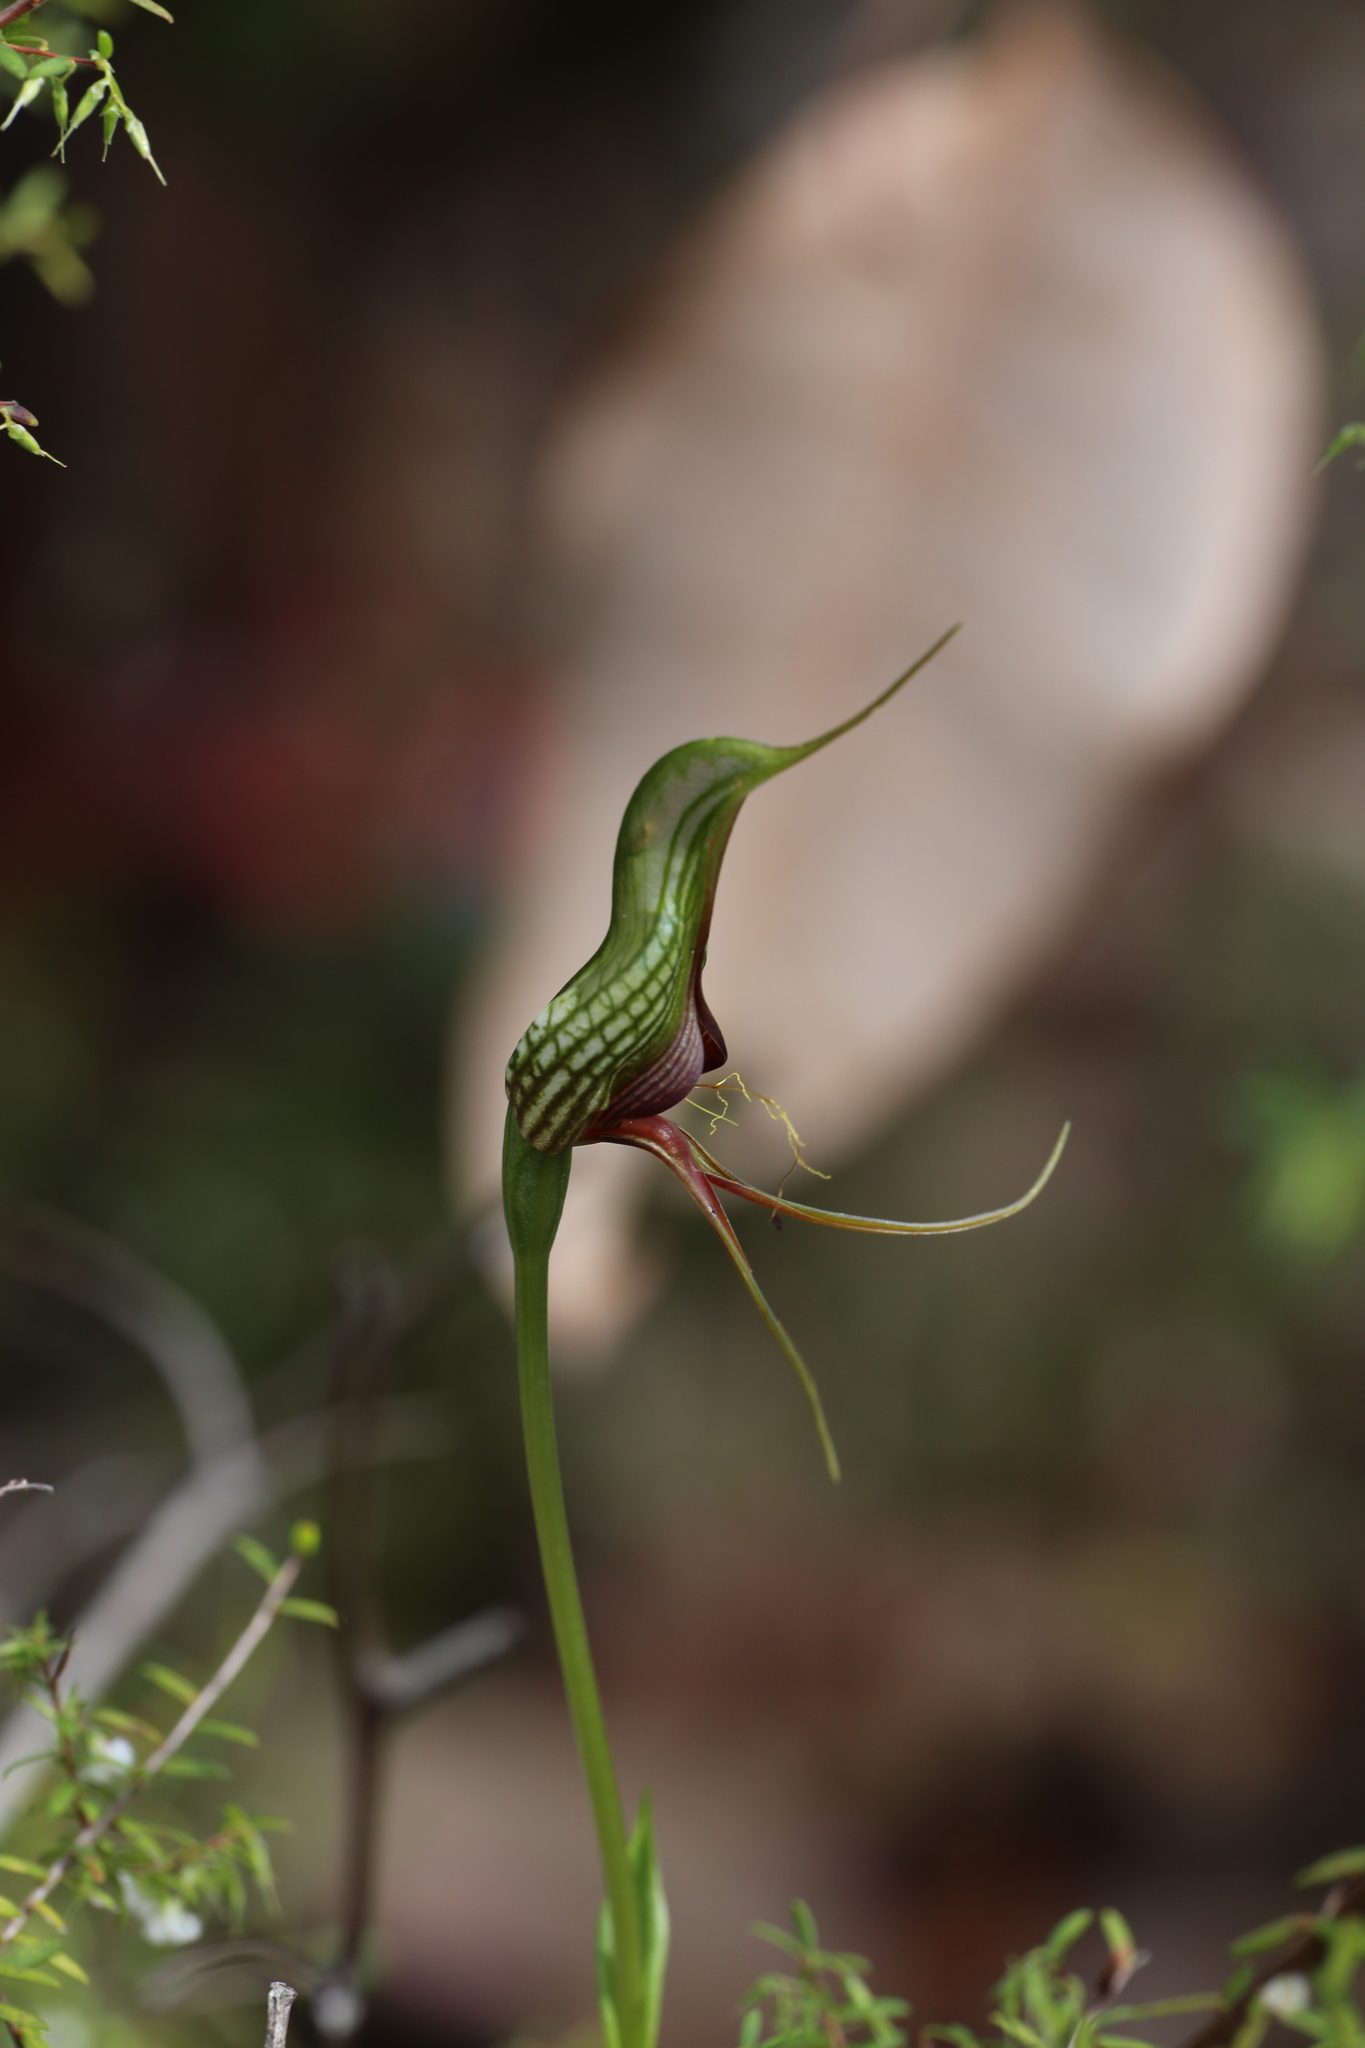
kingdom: Plantae
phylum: Tracheophyta
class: Liliopsida
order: Asparagales
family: Orchidaceae
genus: Pterostylis
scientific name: Pterostylis barbata
